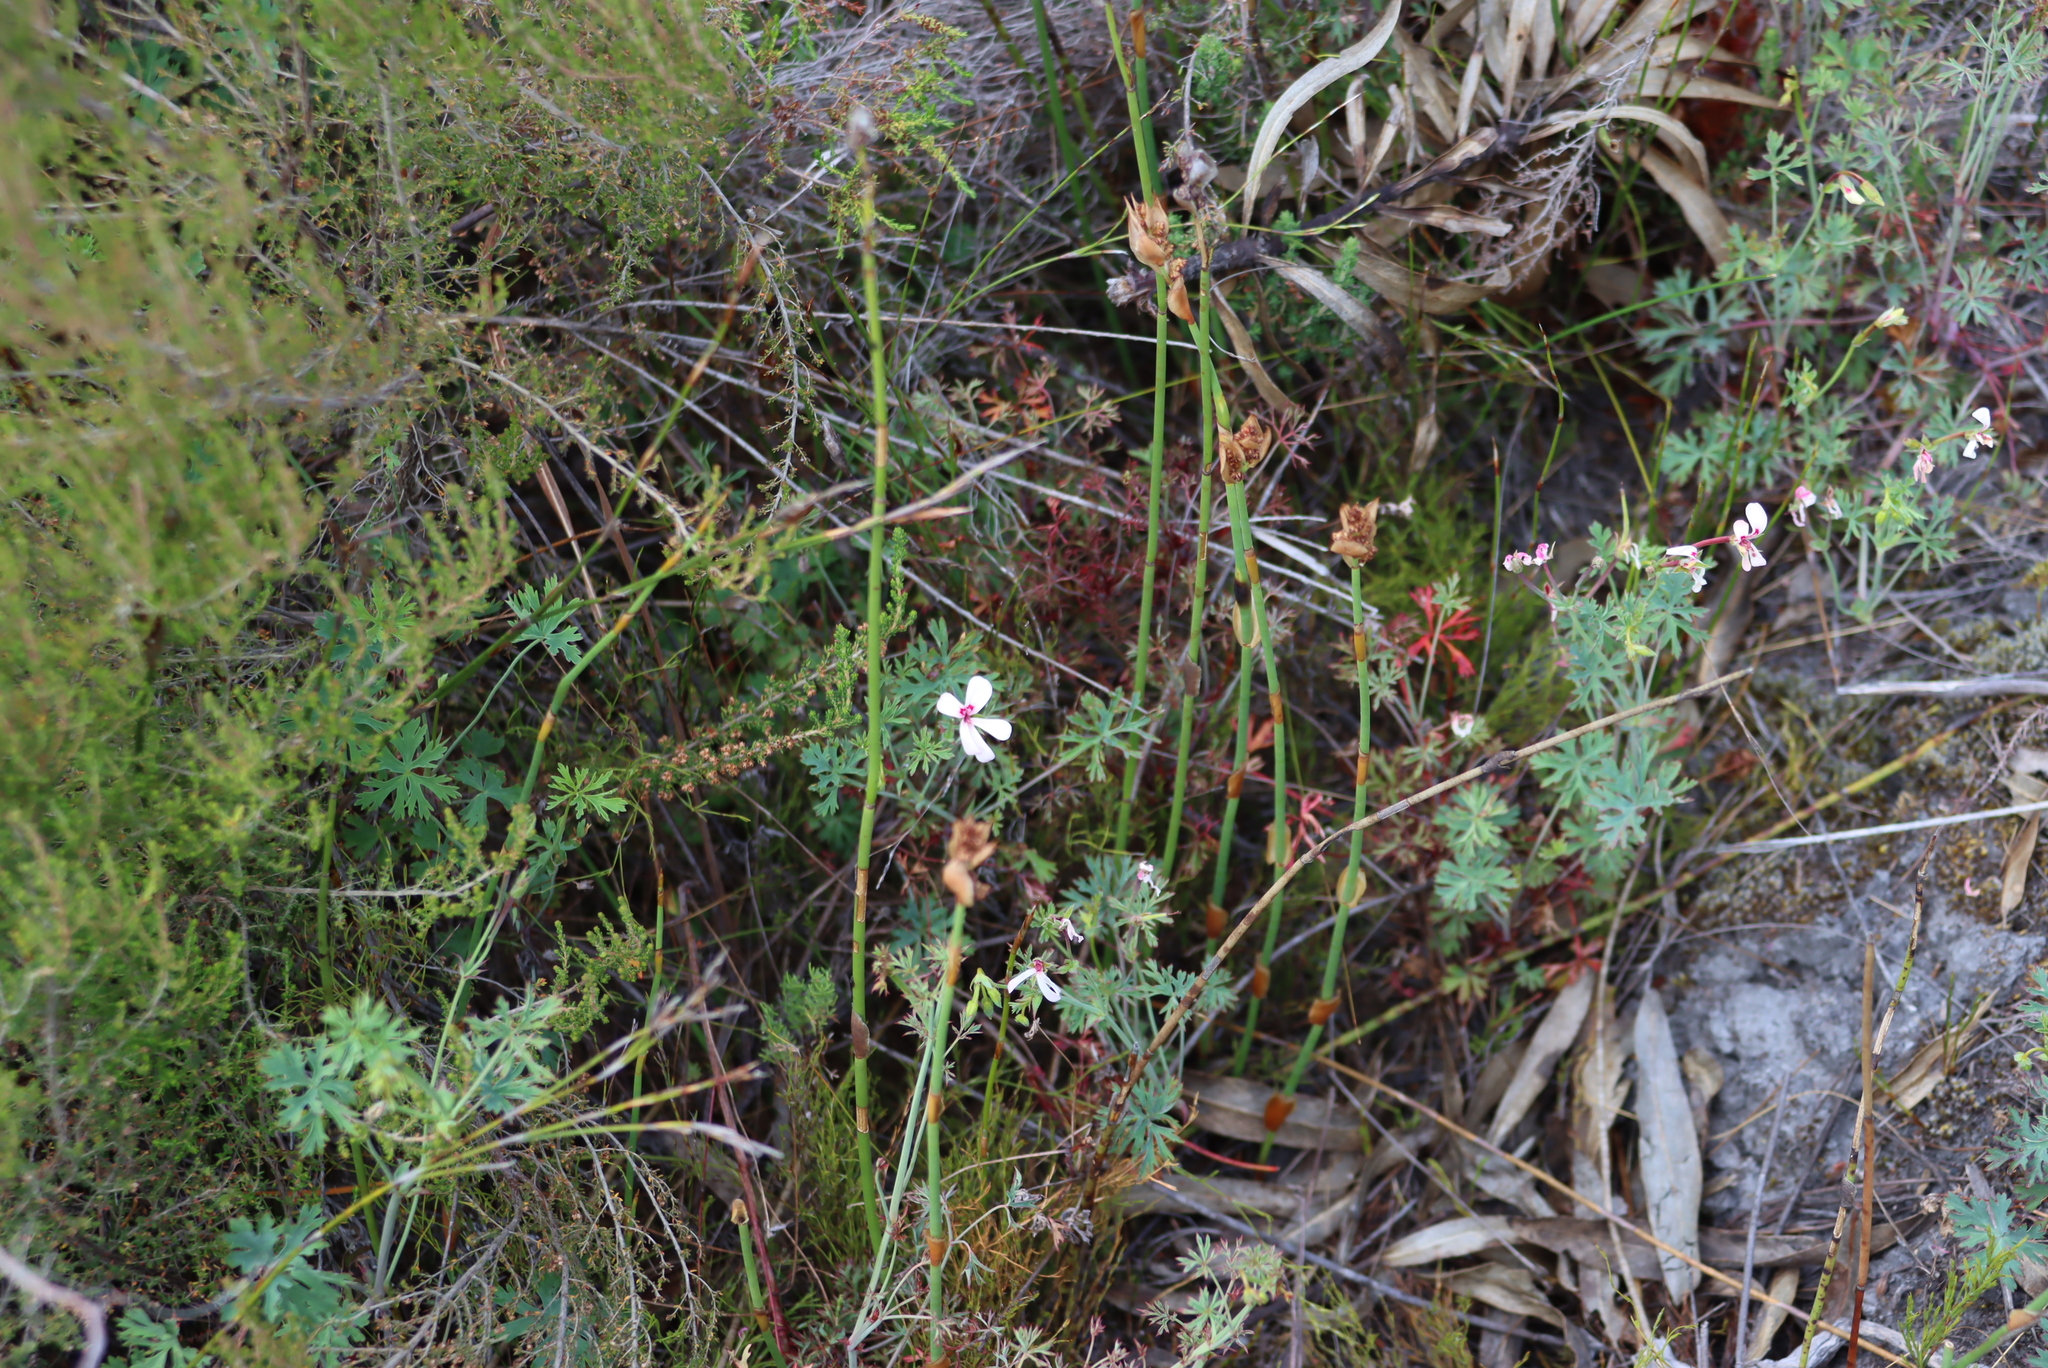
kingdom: Plantae
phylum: Tracheophyta
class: Magnoliopsida
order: Geraniales
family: Geraniaceae
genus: Pelargonium
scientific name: Pelargonium patulum
